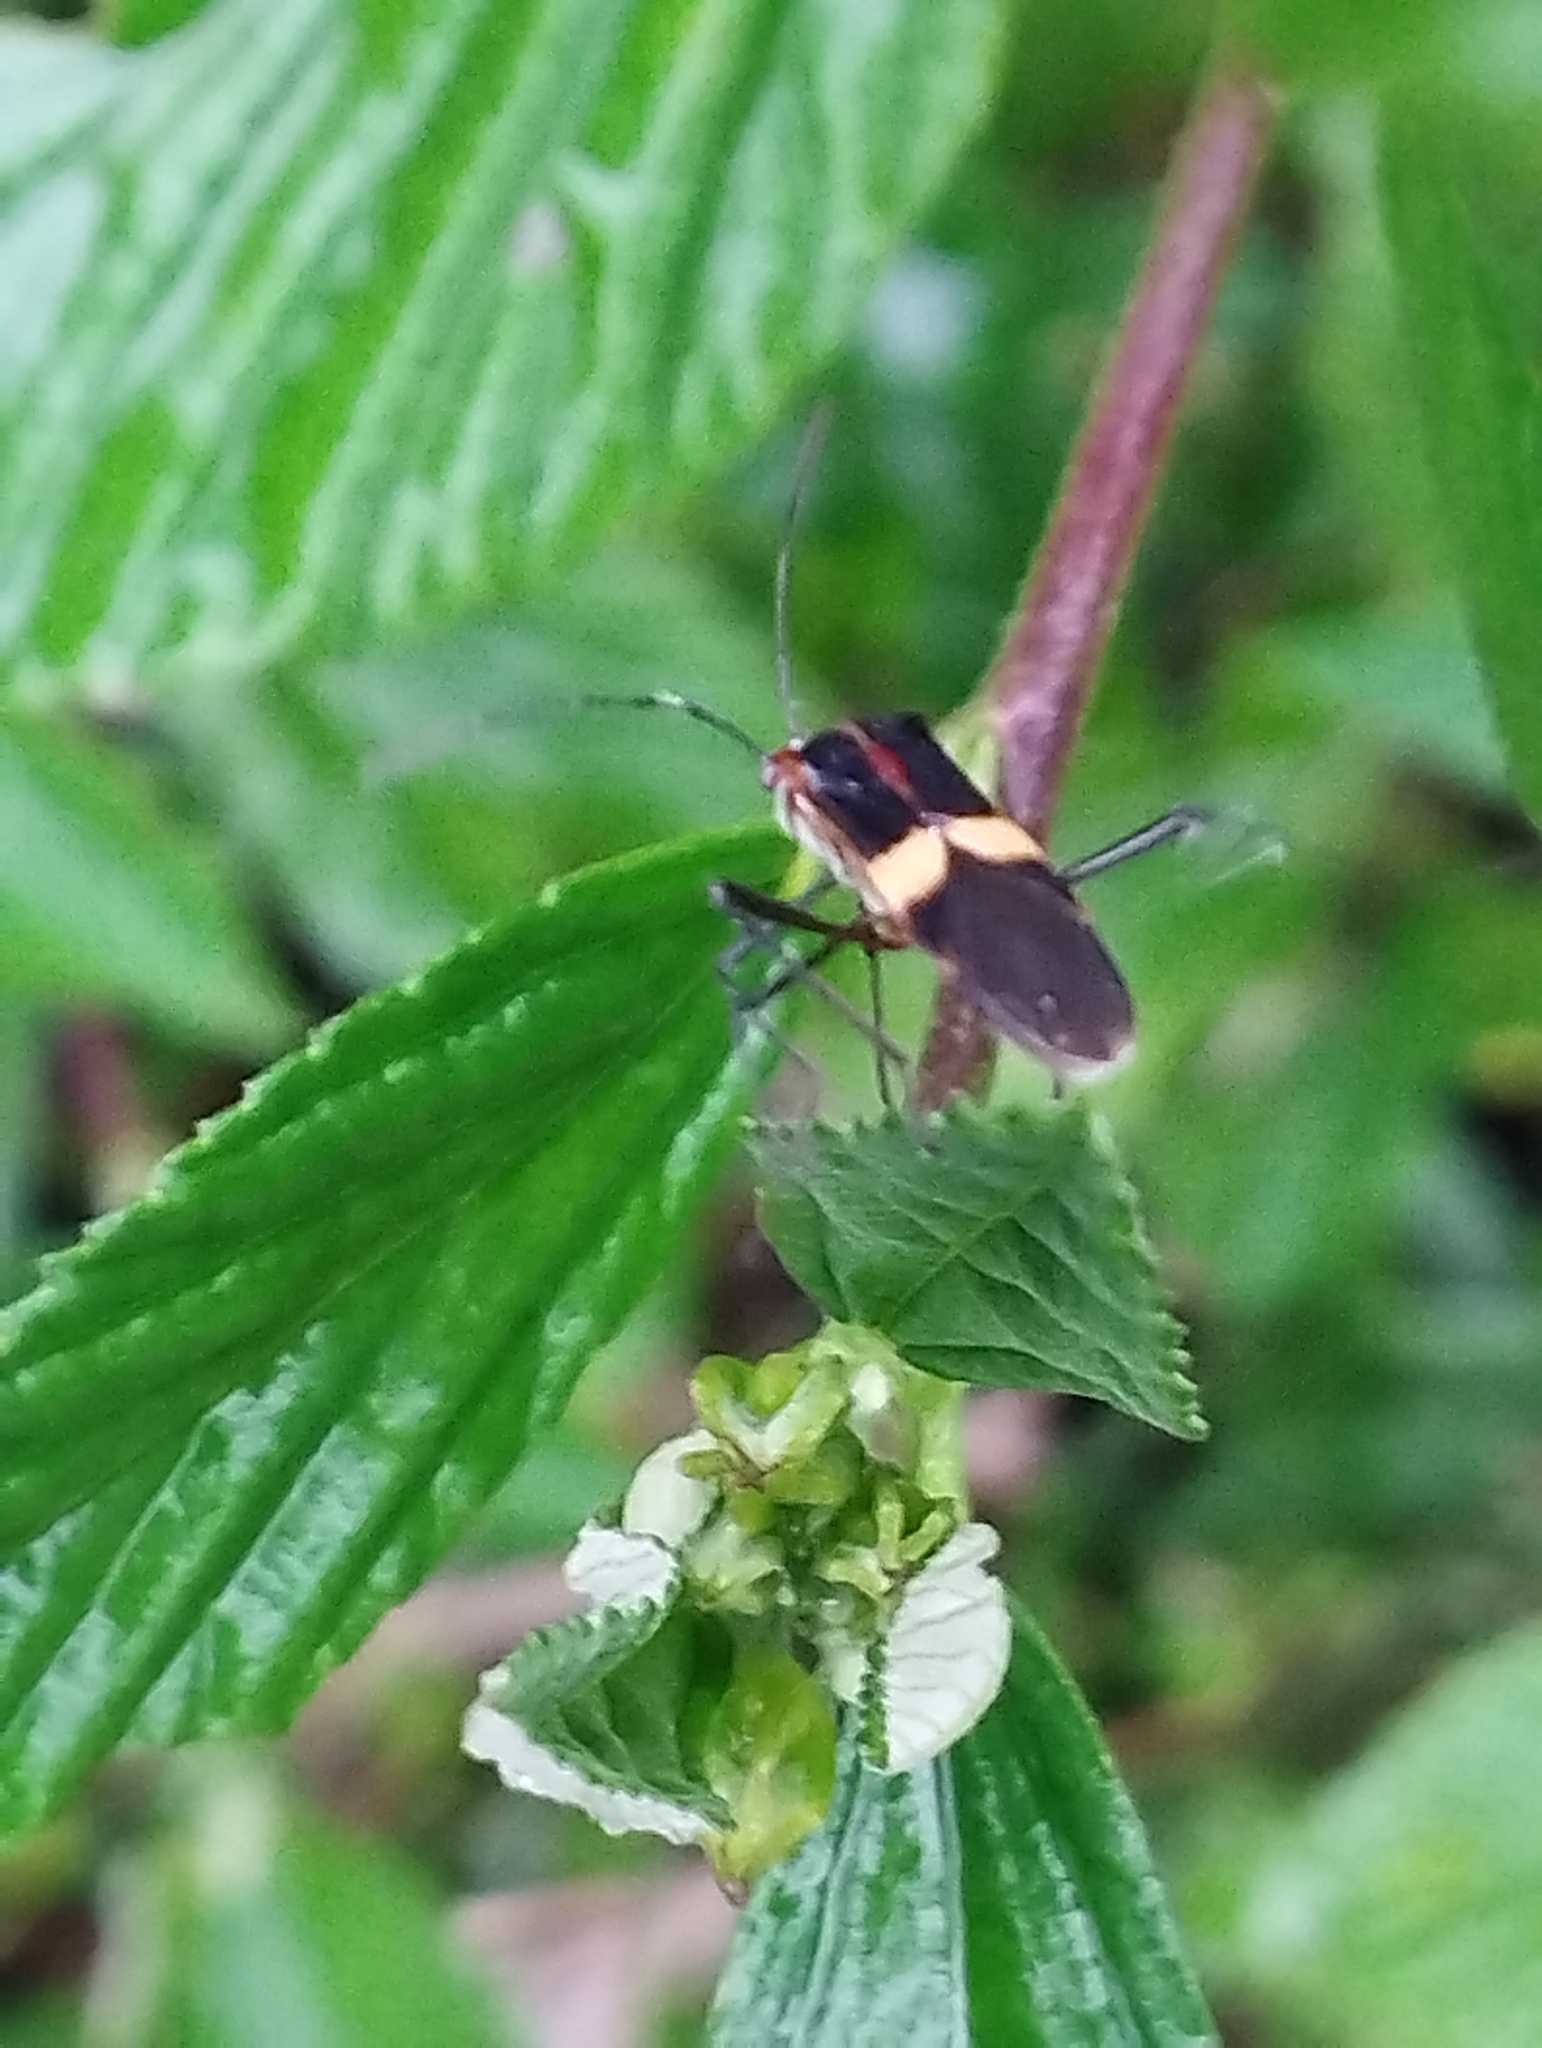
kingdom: Animalia
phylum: Arthropoda
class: Insecta
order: Hemiptera
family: Coreidae
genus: Hypselonotus
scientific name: Hypselonotus interruptus
